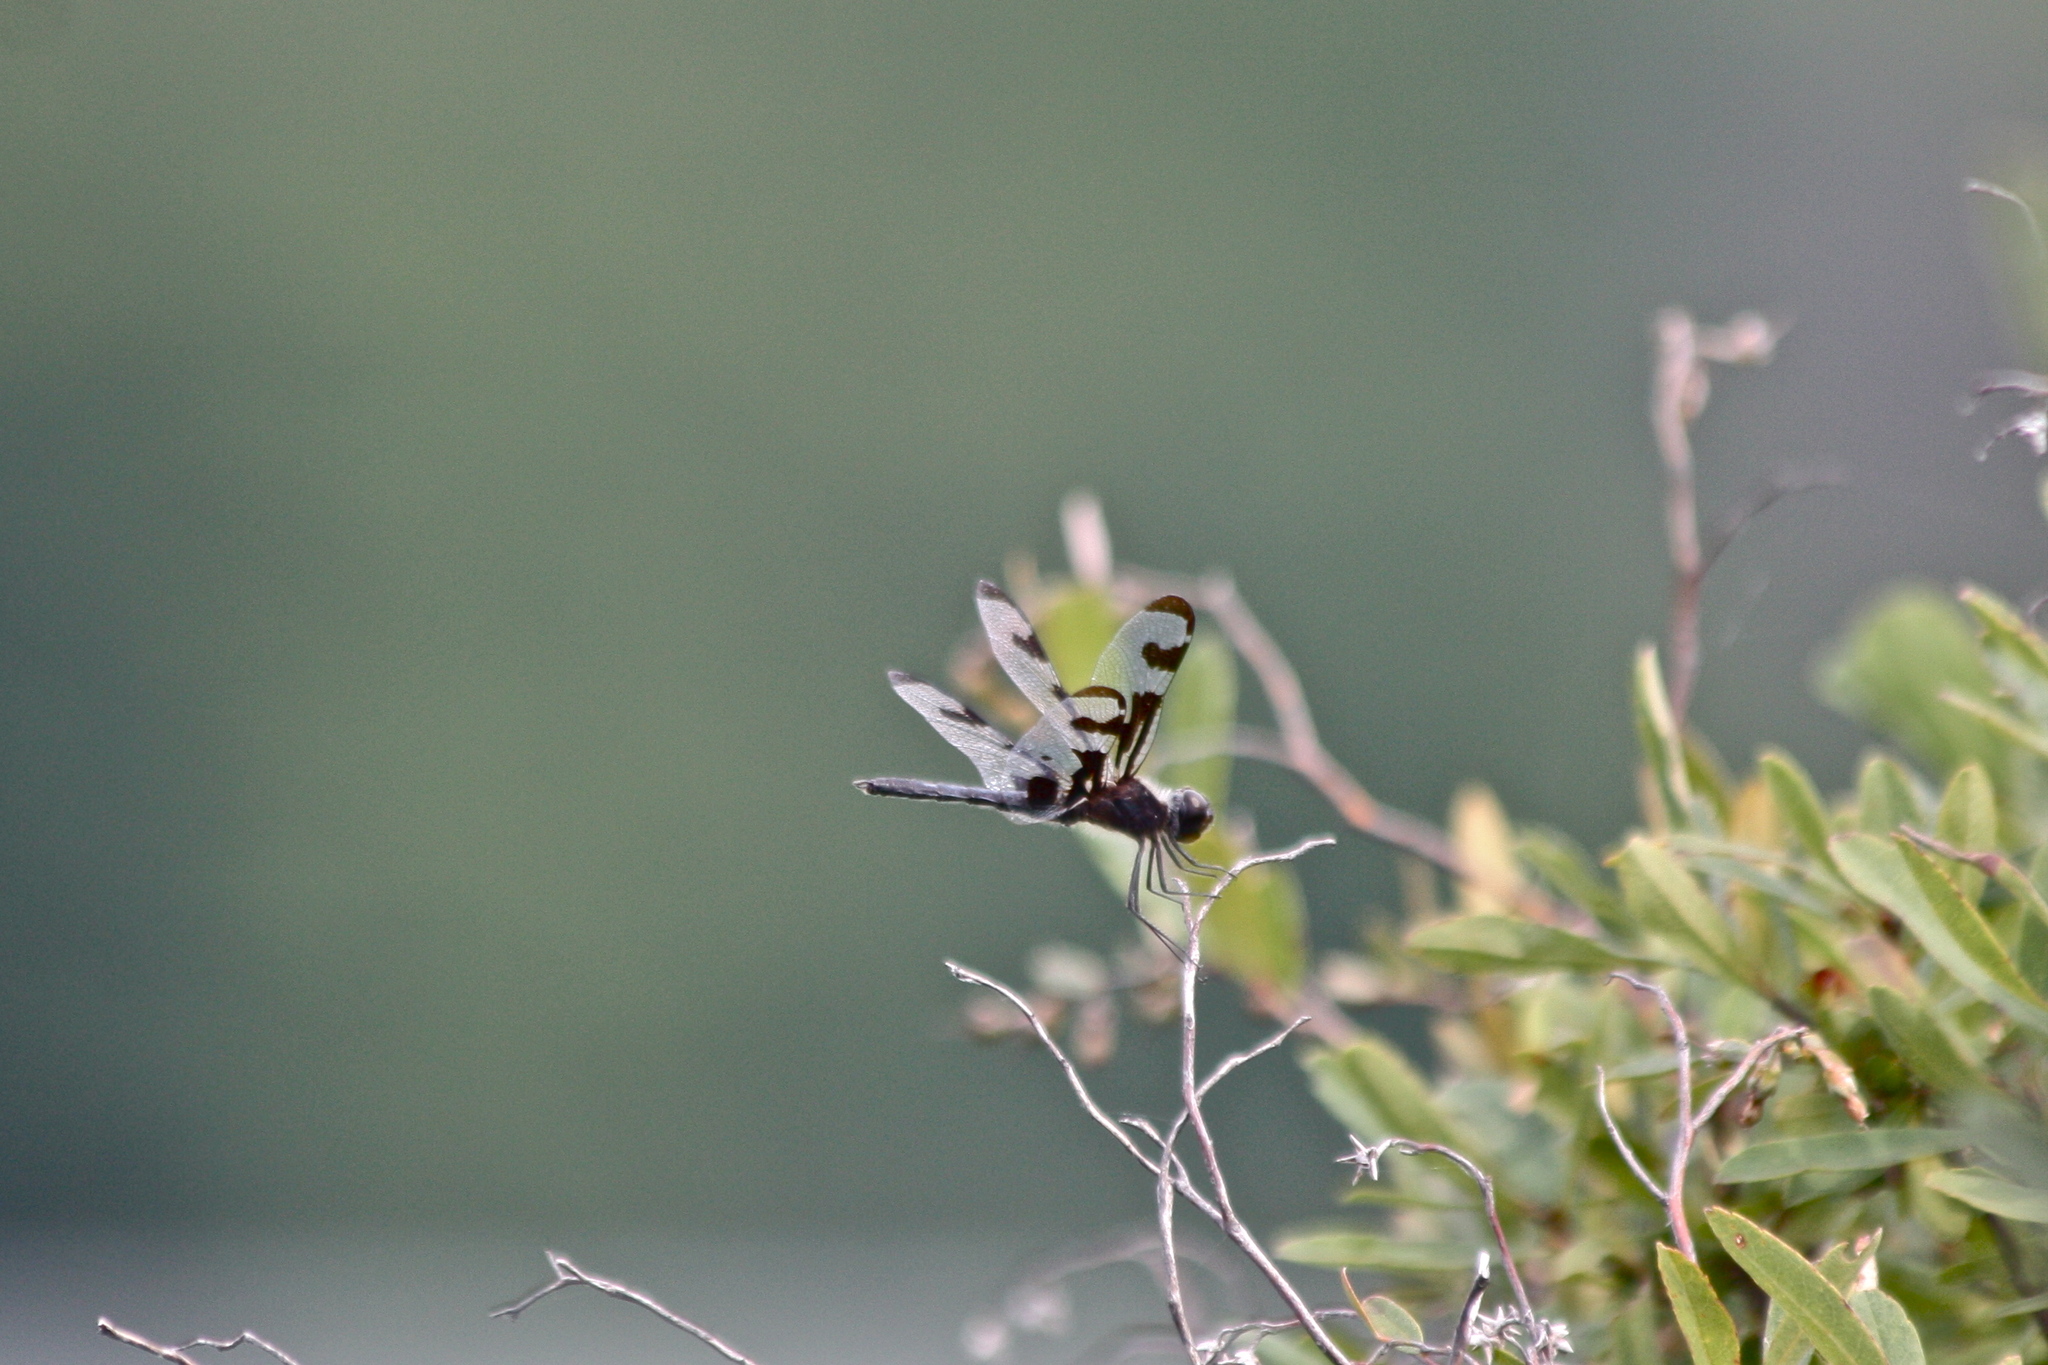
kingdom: Animalia
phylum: Arthropoda
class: Insecta
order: Odonata
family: Libellulidae
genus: Celithemis
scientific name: Celithemis fasciata
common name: Banded pennant
